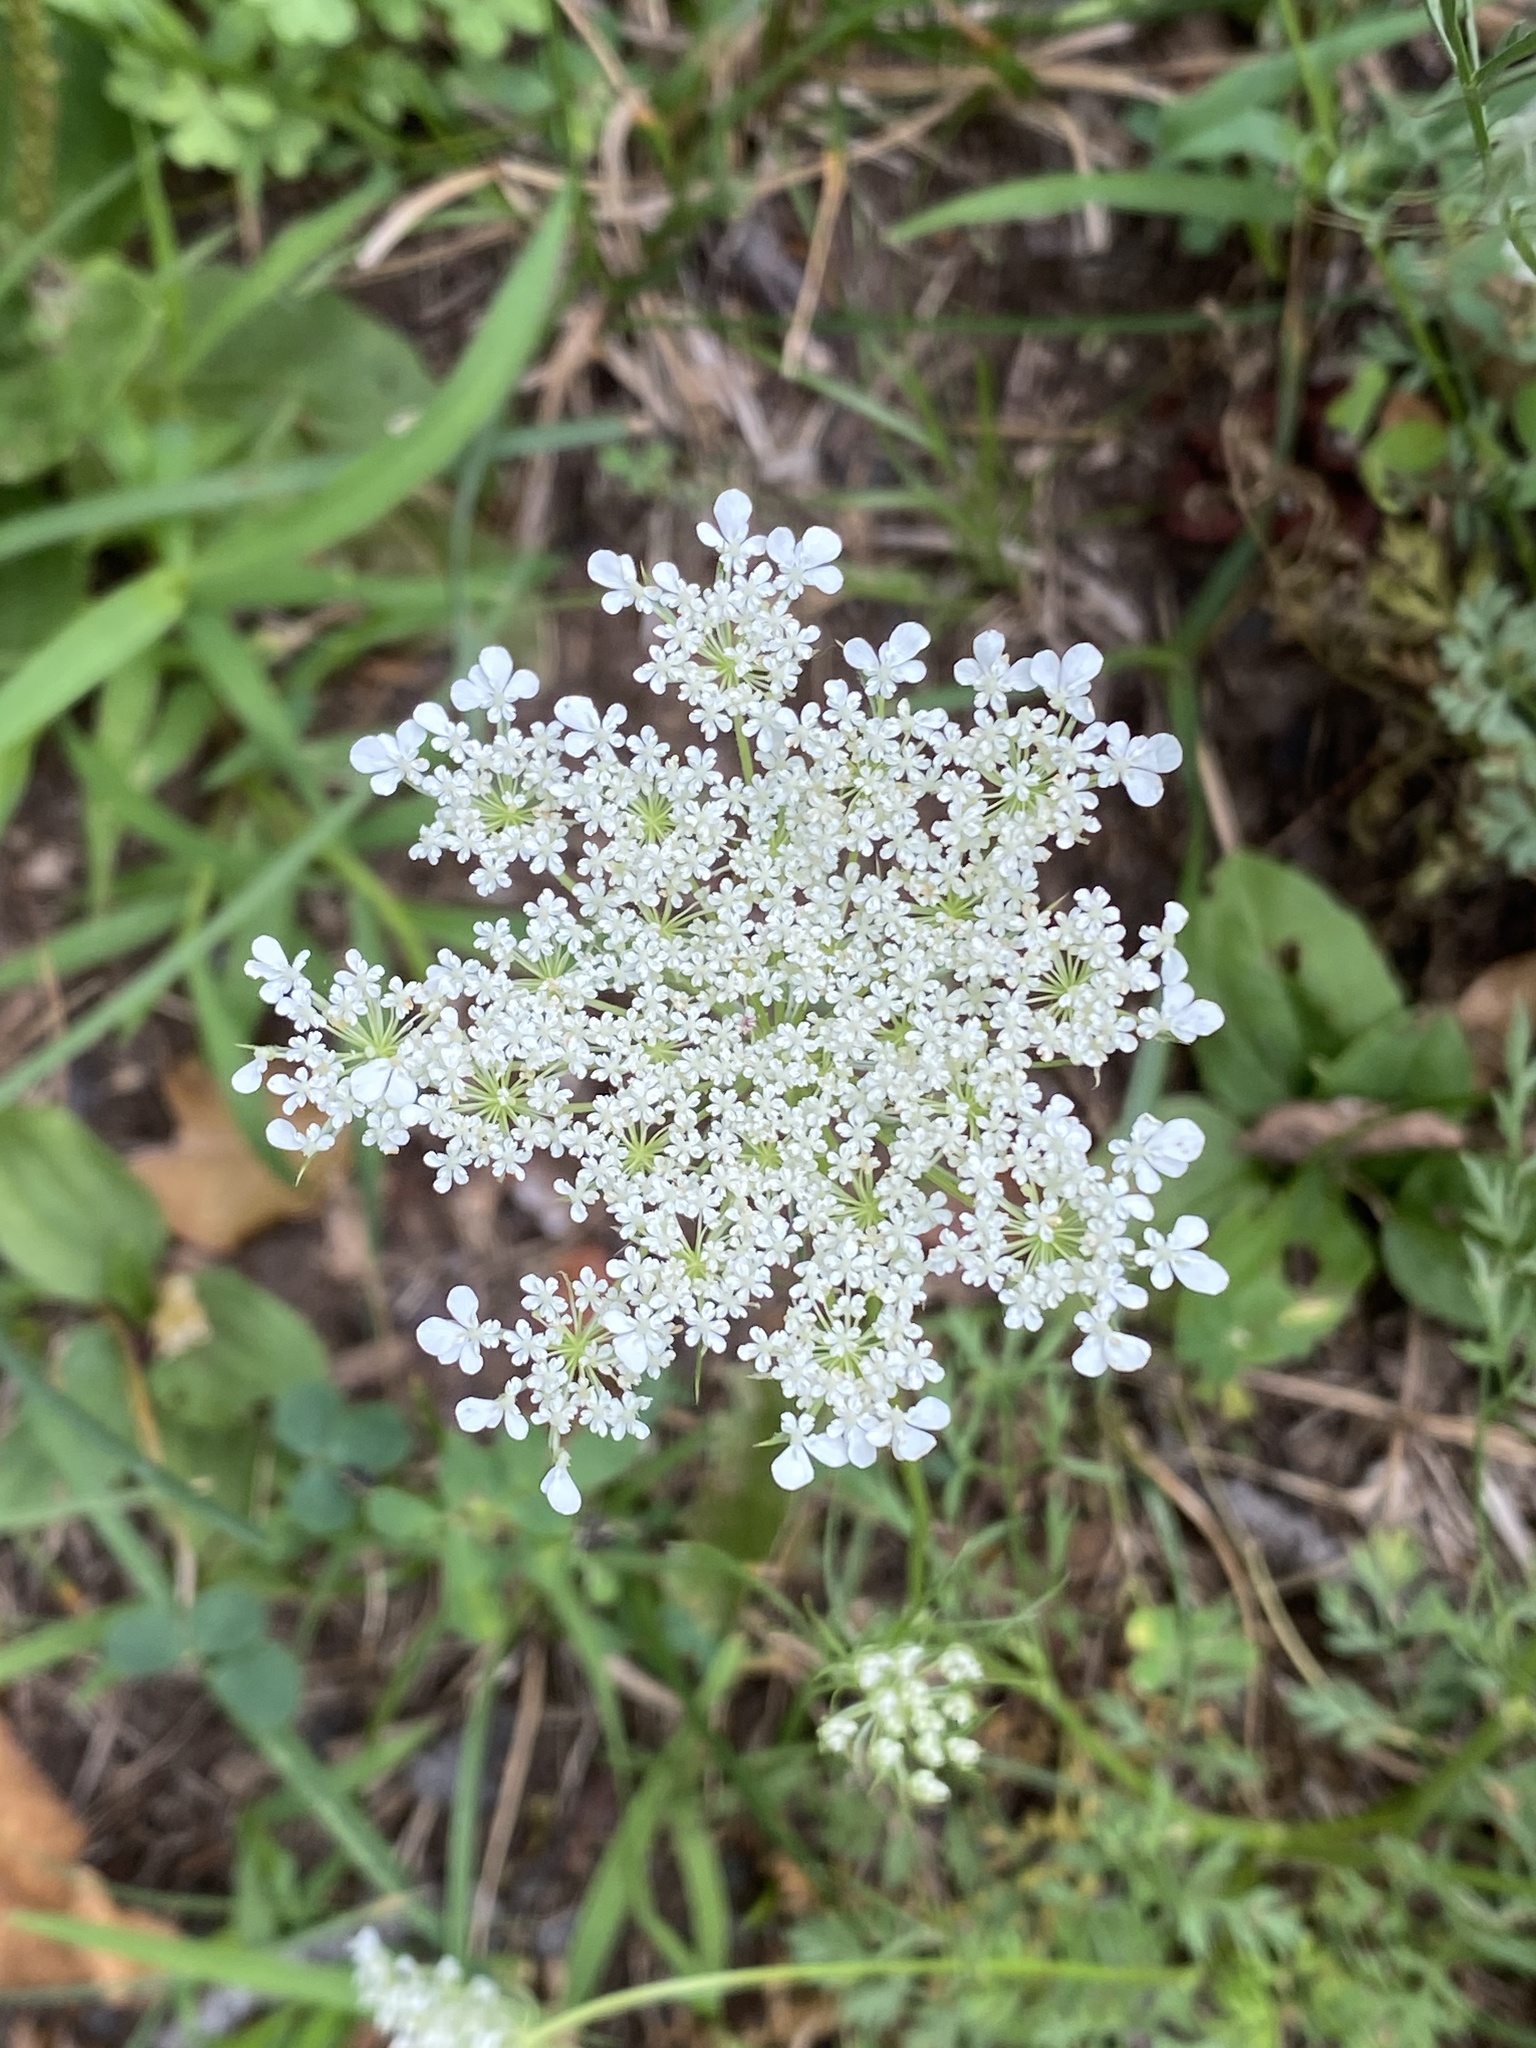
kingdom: Plantae
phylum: Tracheophyta
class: Magnoliopsida
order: Apiales
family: Apiaceae
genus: Daucus
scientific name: Daucus carota
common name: Wild carrot
